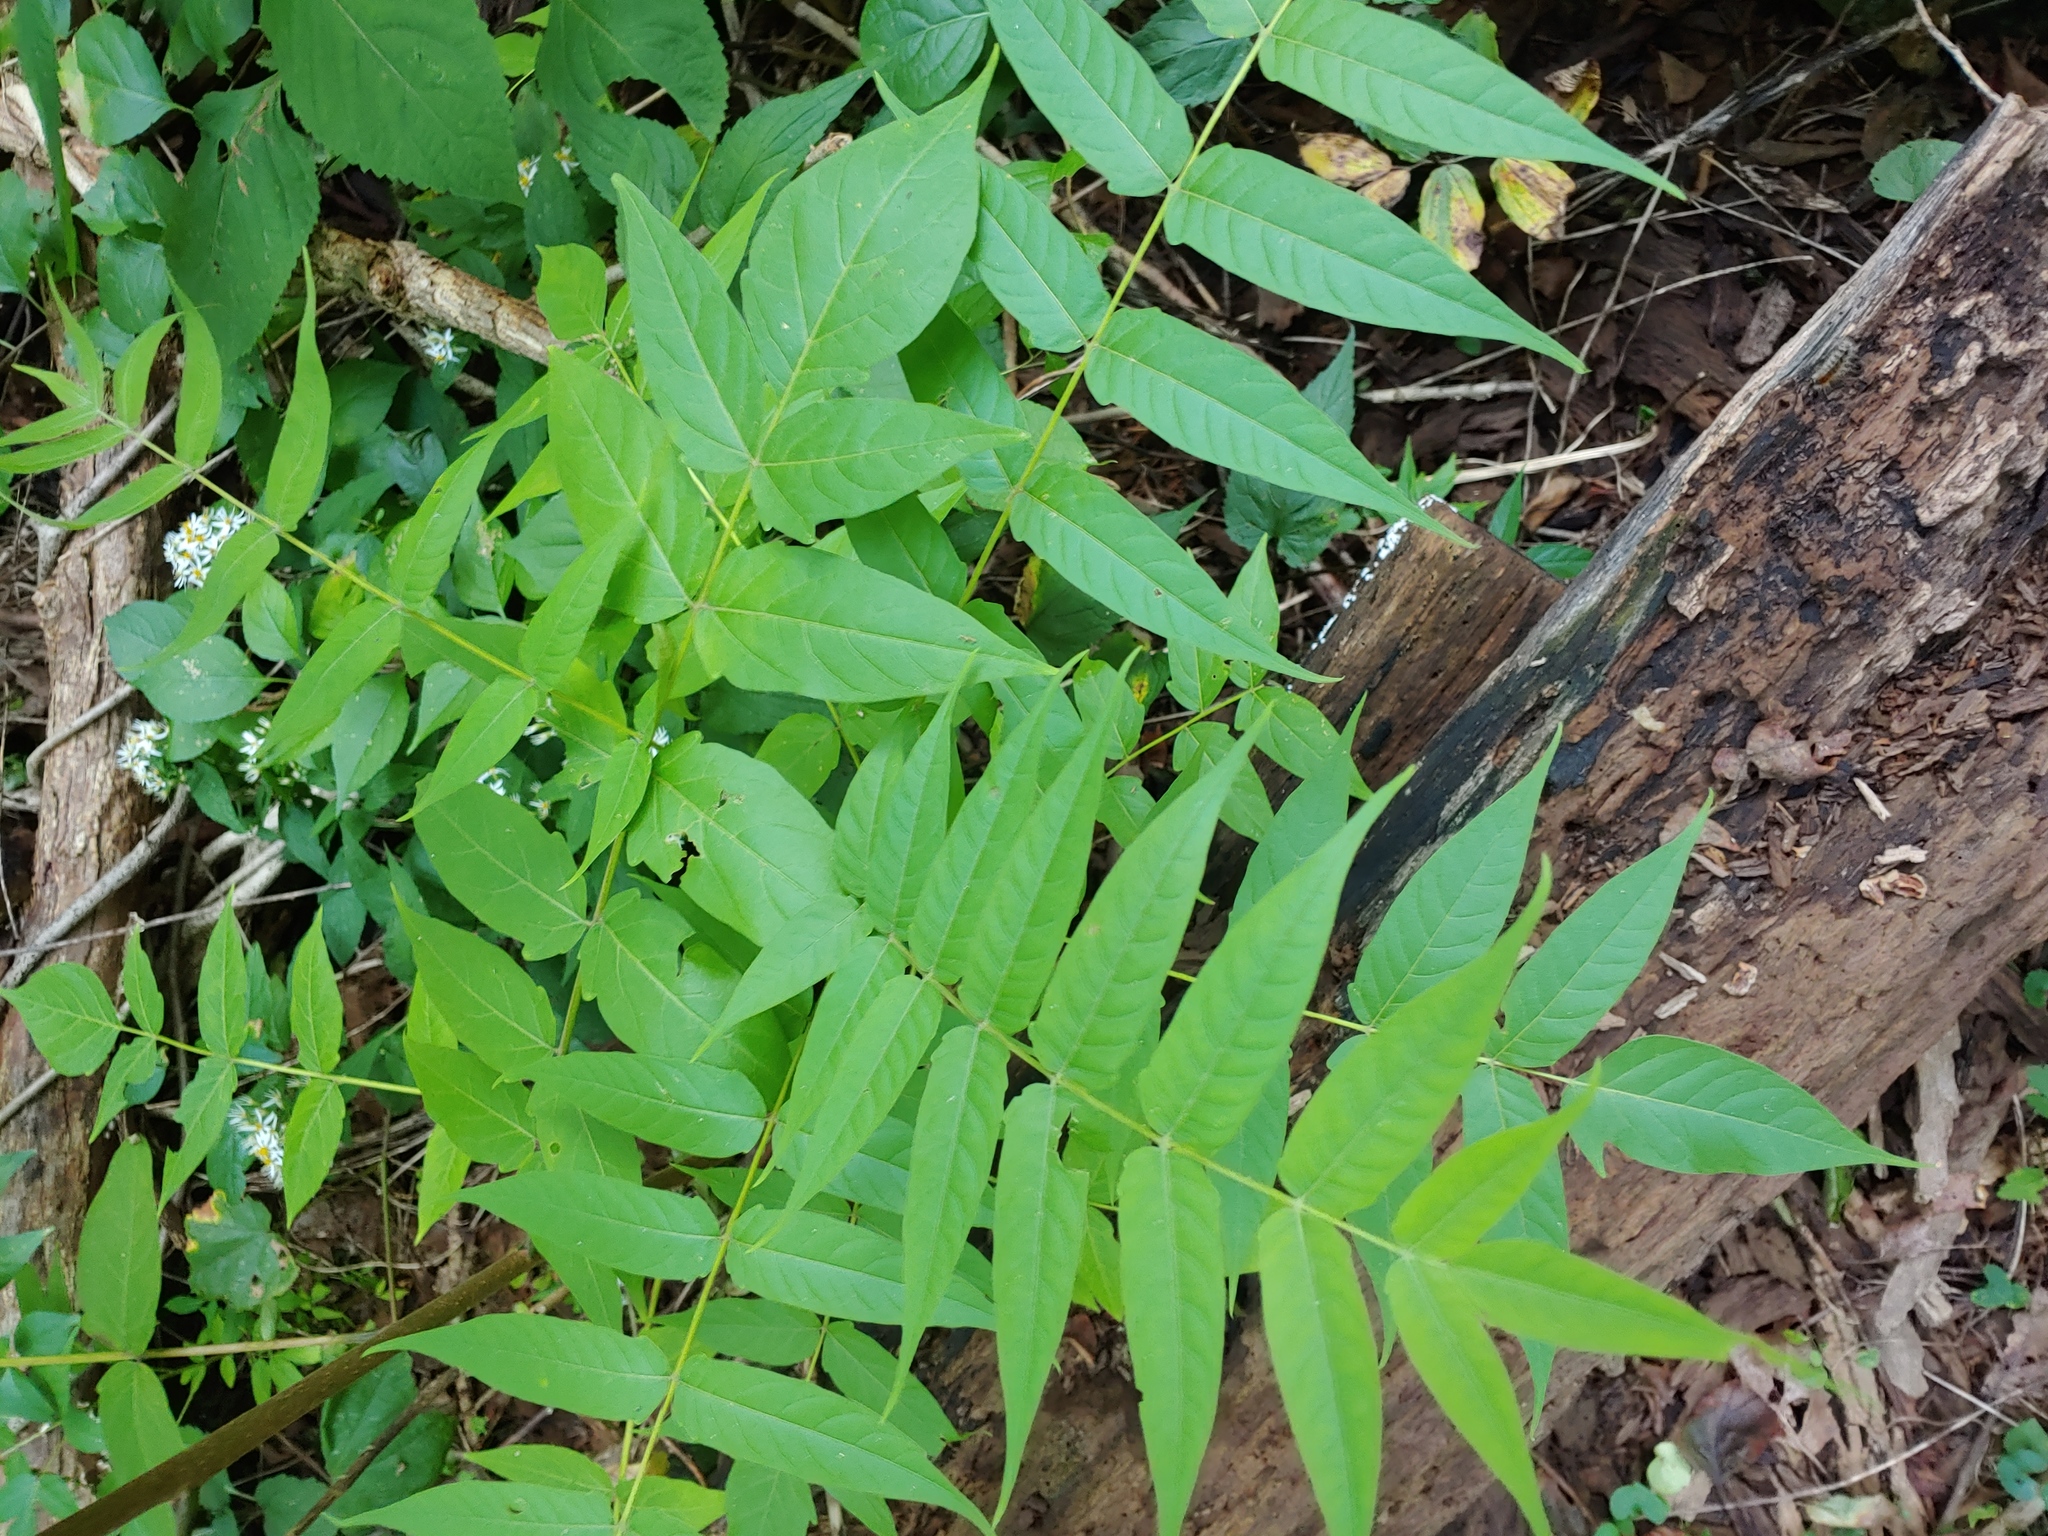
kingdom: Plantae
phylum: Tracheophyta
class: Magnoliopsida
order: Sapindales
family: Simaroubaceae
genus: Ailanthus
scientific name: Ailanthus altissima
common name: Tree-of-heaven
